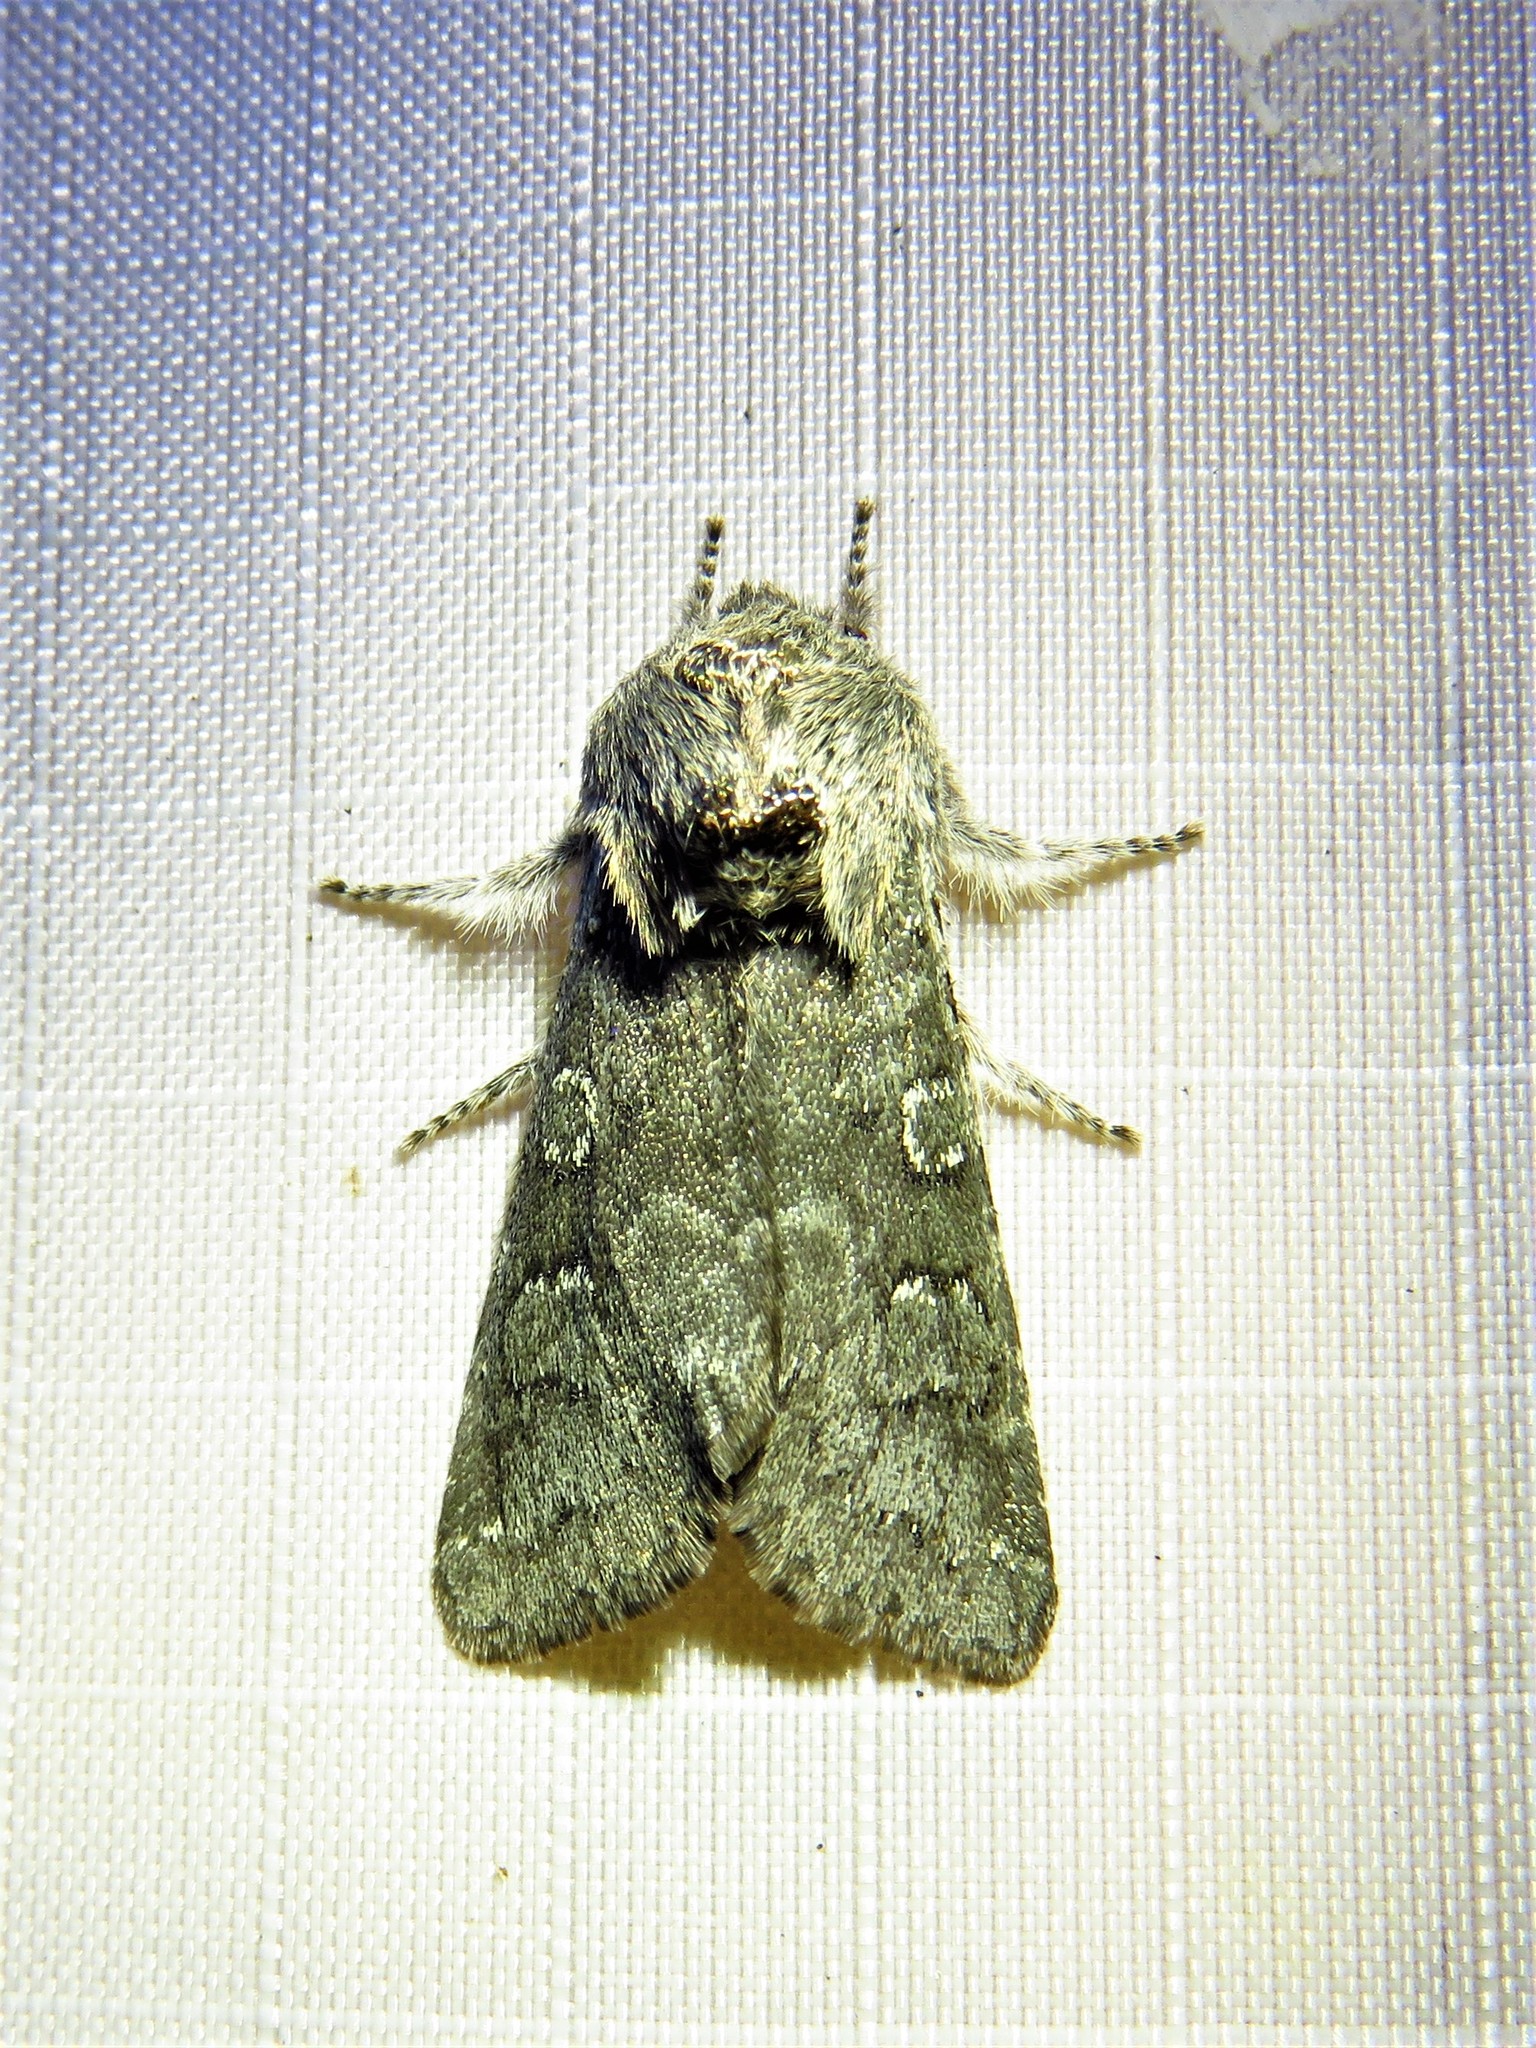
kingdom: Animalia
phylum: Arthropoda
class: Insecta
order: Lepidoptera
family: Noctuidae
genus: Psaphida
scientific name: Psaphida rolandi
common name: Roland's sallow
